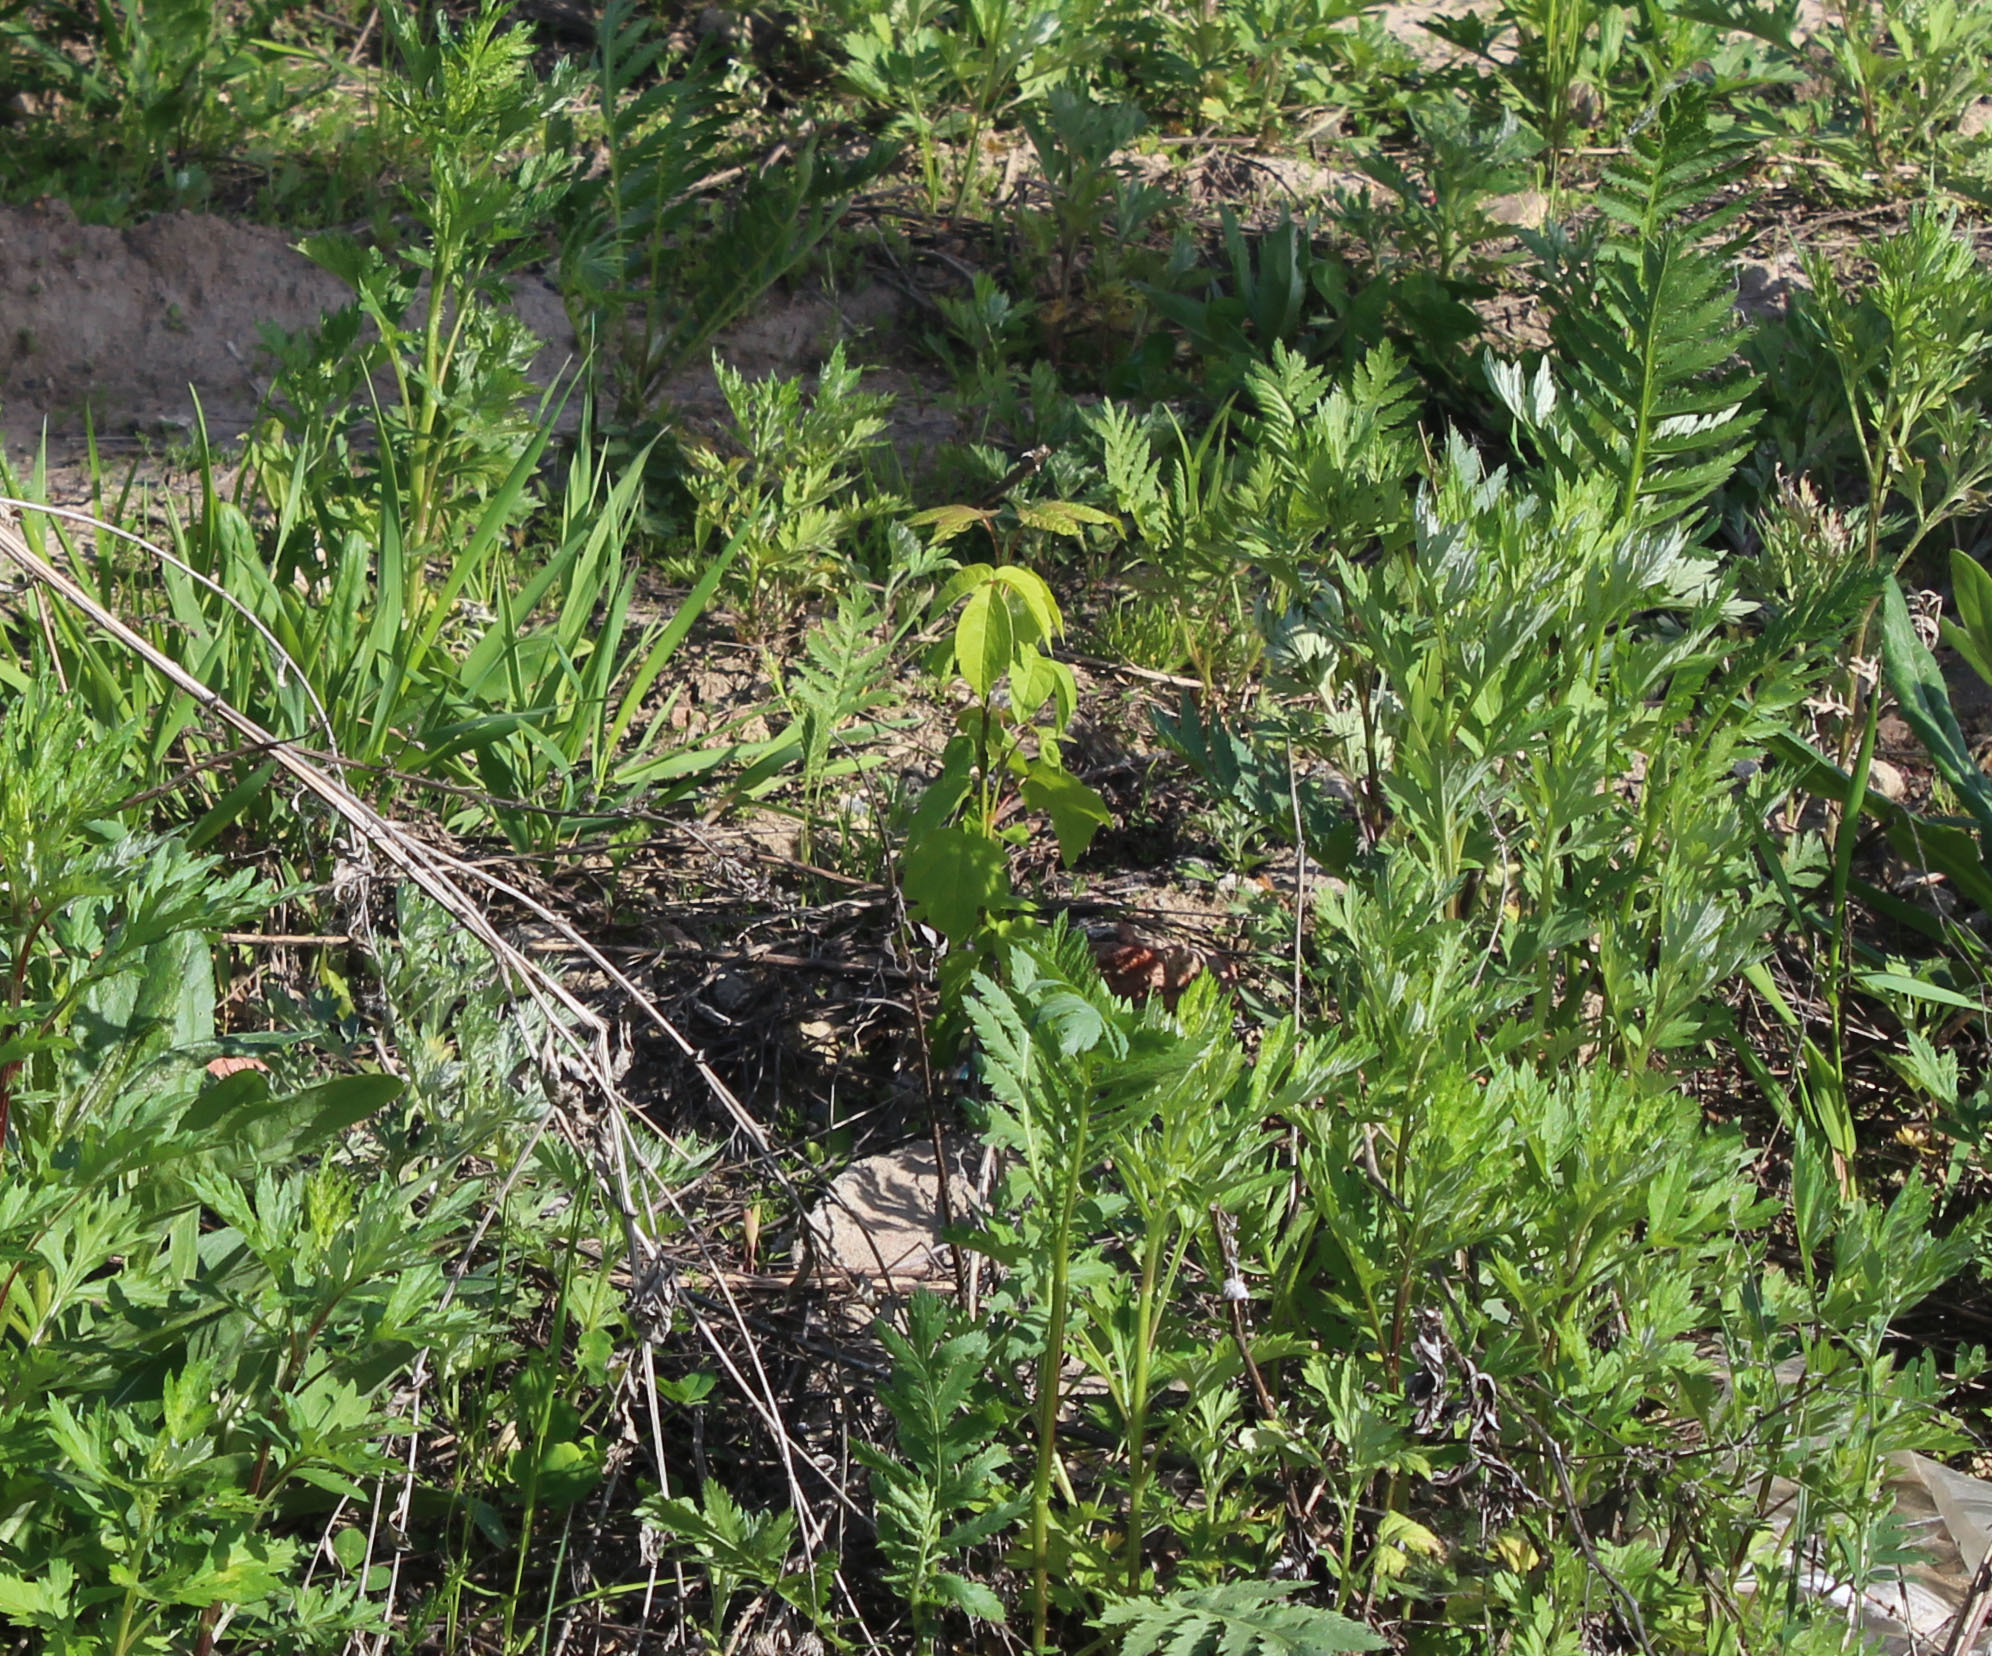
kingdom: Plantae
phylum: Tracheophyta
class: Magnoliopsida
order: Sapindales
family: Sapindaceae
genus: Acer
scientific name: Acer negundo
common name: Ashleaf maple
